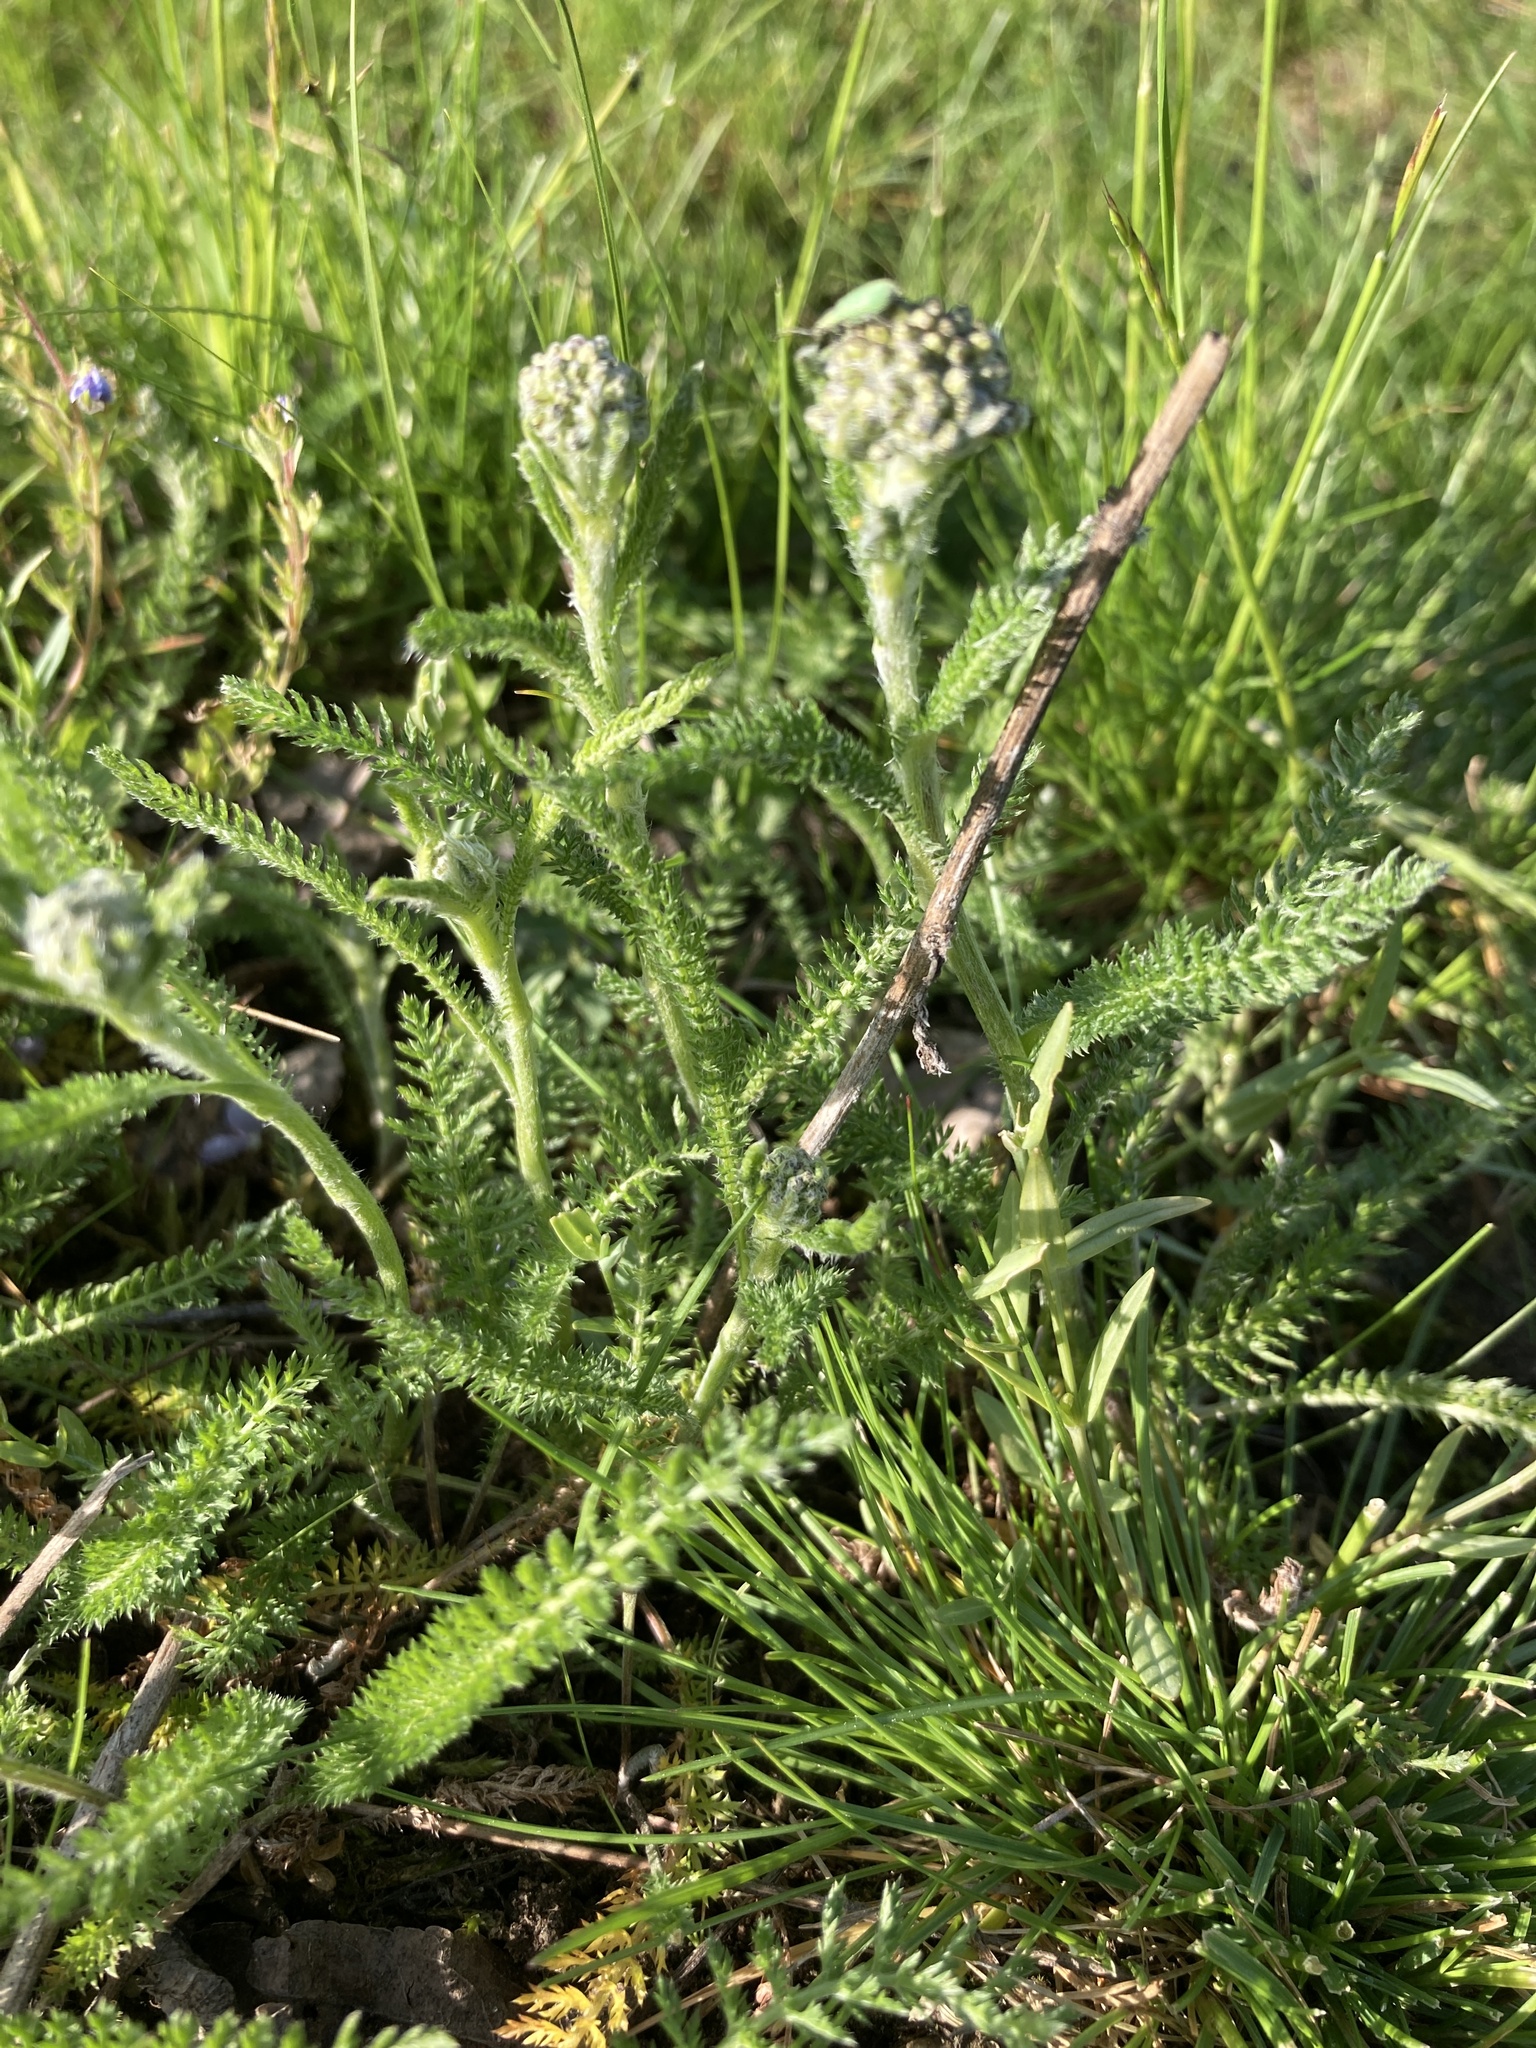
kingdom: Plantae
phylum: Tracheophyta
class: Magnoliopsida
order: Asterales
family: Asteraceae
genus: Achillea
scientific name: Achillea millefolium
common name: Yarrow
